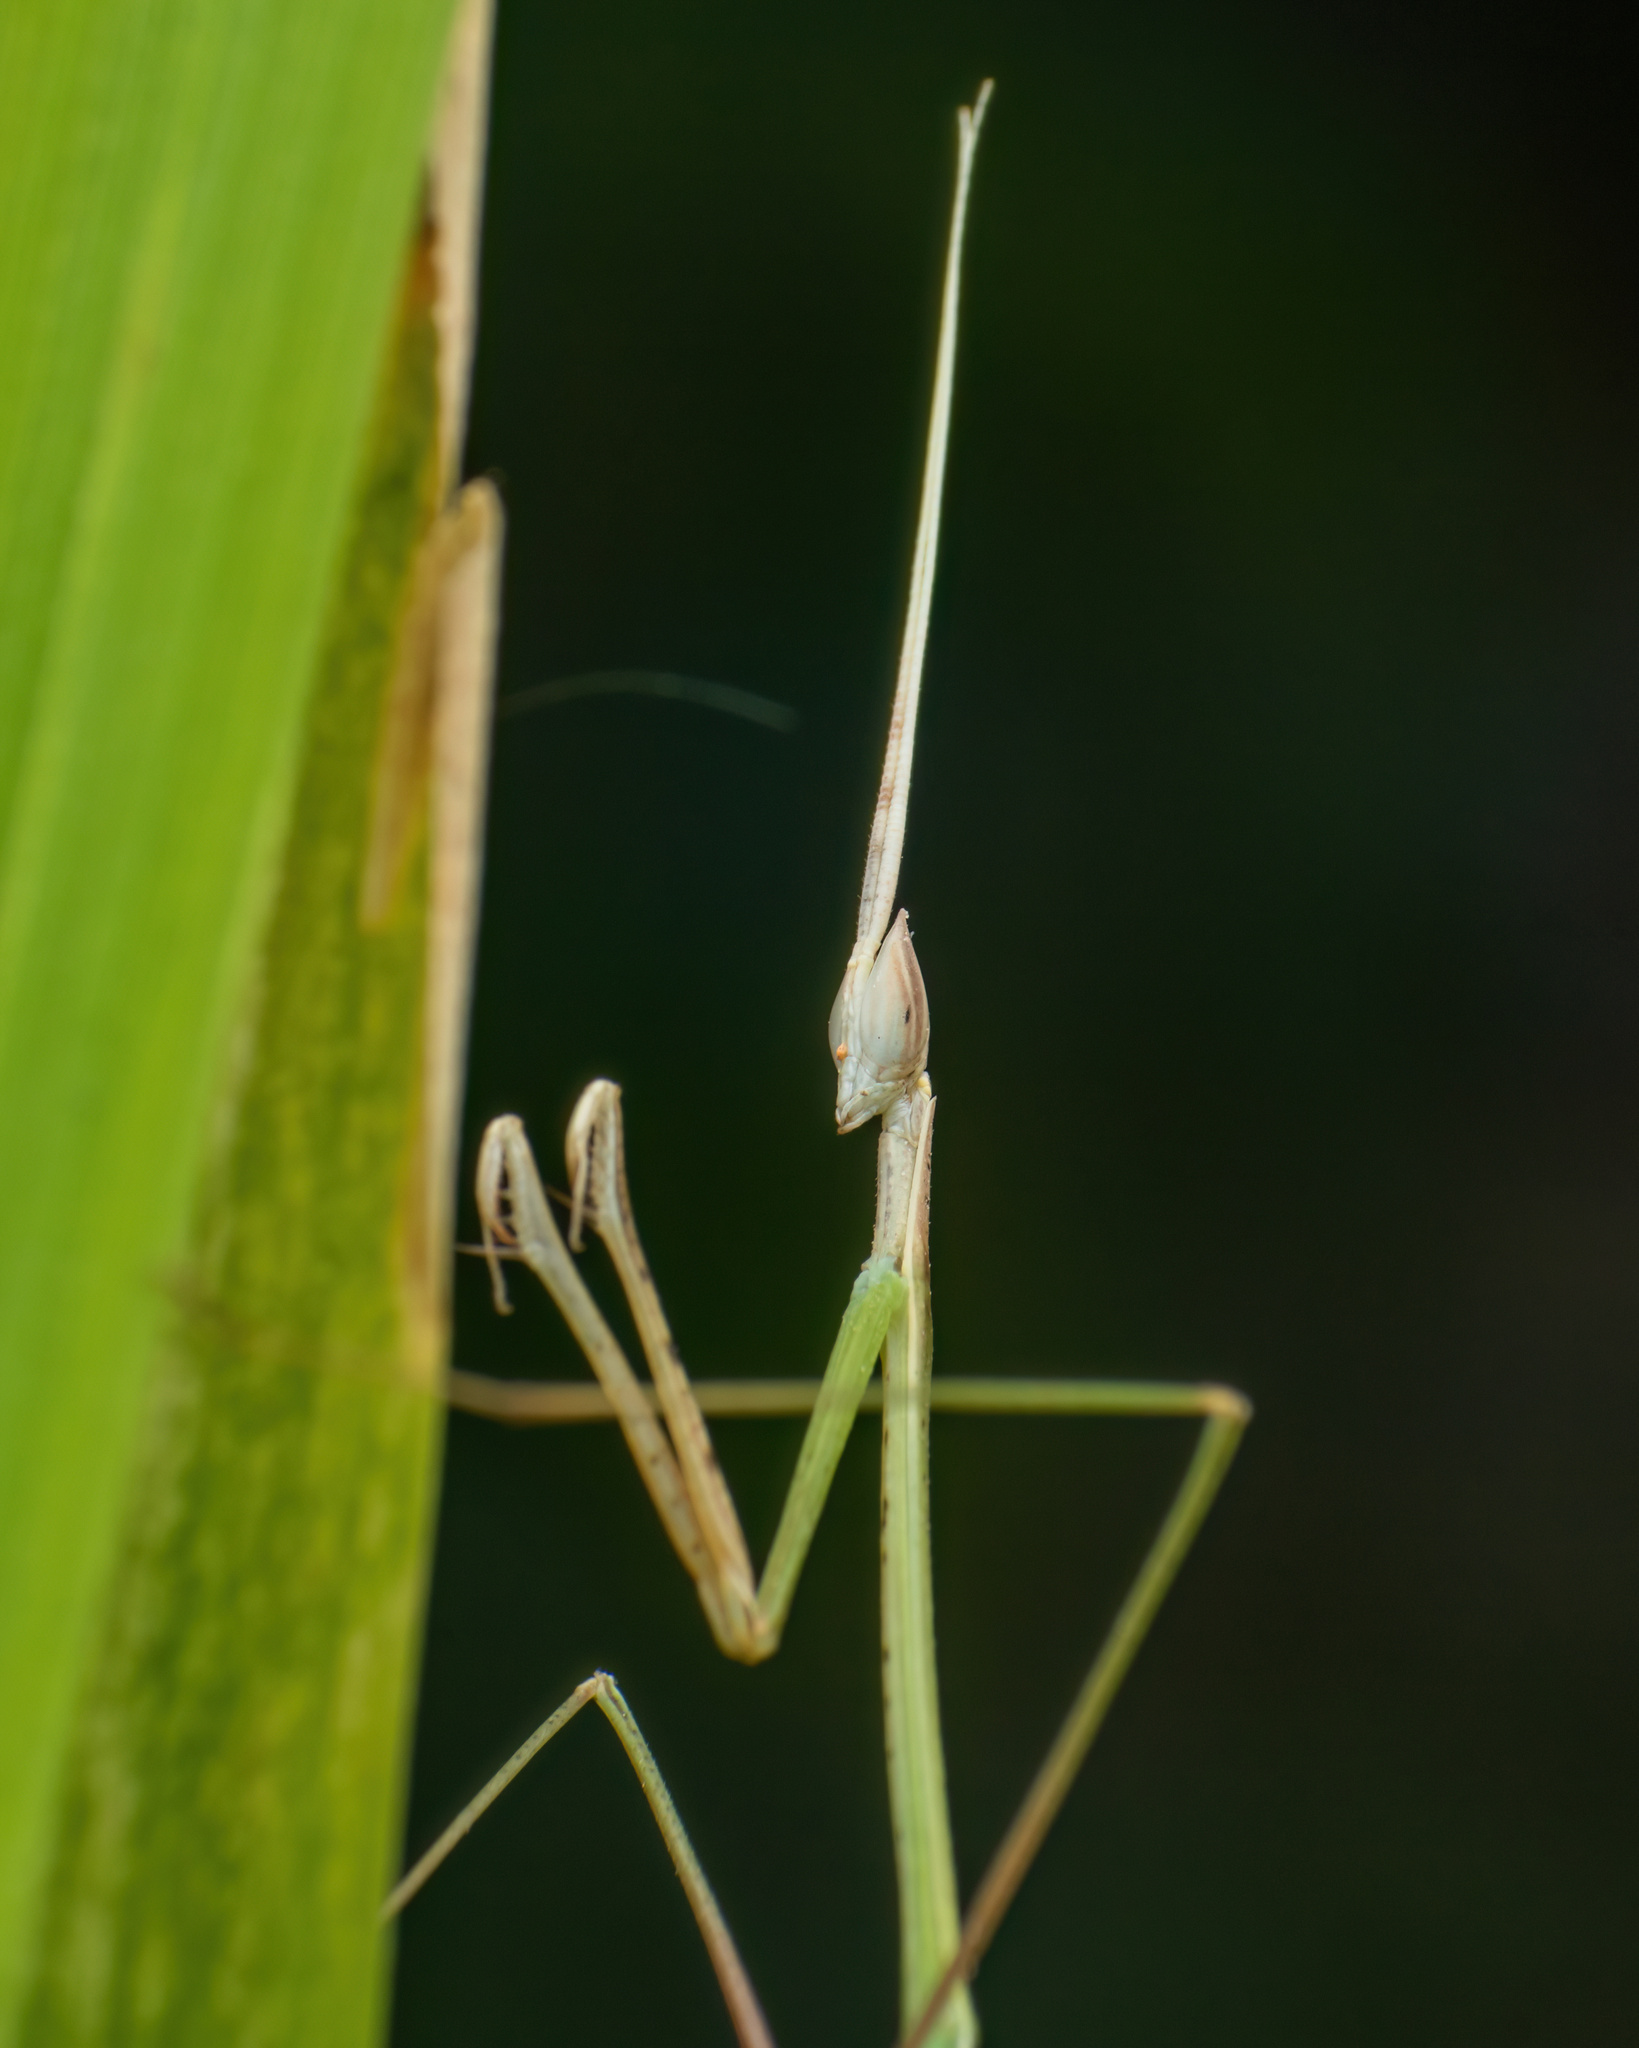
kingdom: Animalia
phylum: Arthropoda
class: Insecta
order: Mantodea
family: Eremiaphilidae
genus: Schizocephala
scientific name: Schizocephala bicornis
